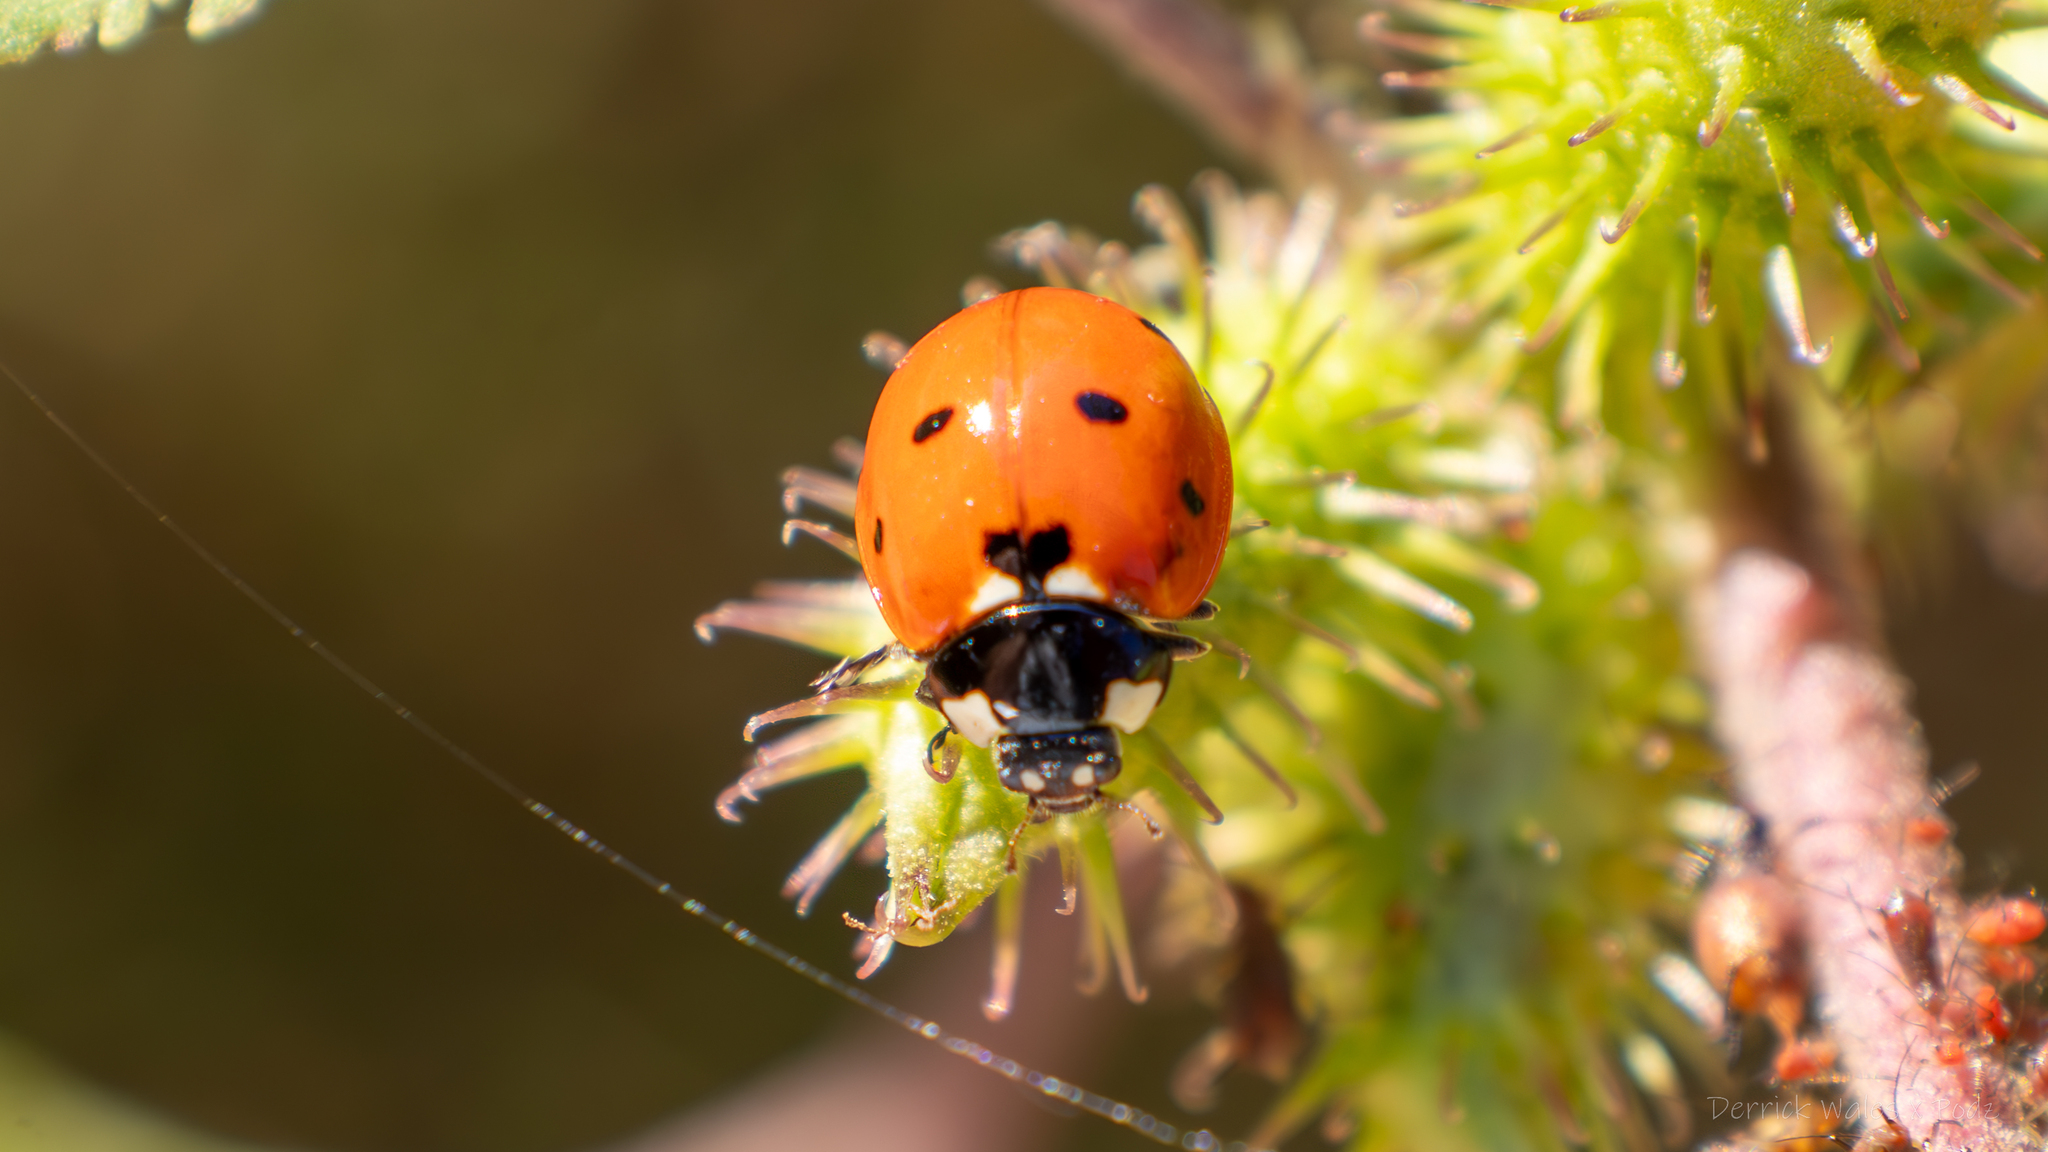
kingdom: Animalia
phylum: Arthropoda
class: Insecta
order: Coleoptera
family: Coccinellidae
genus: Coccinella
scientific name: Coccinella septempunctata
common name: Sevenspotted lady beetle
